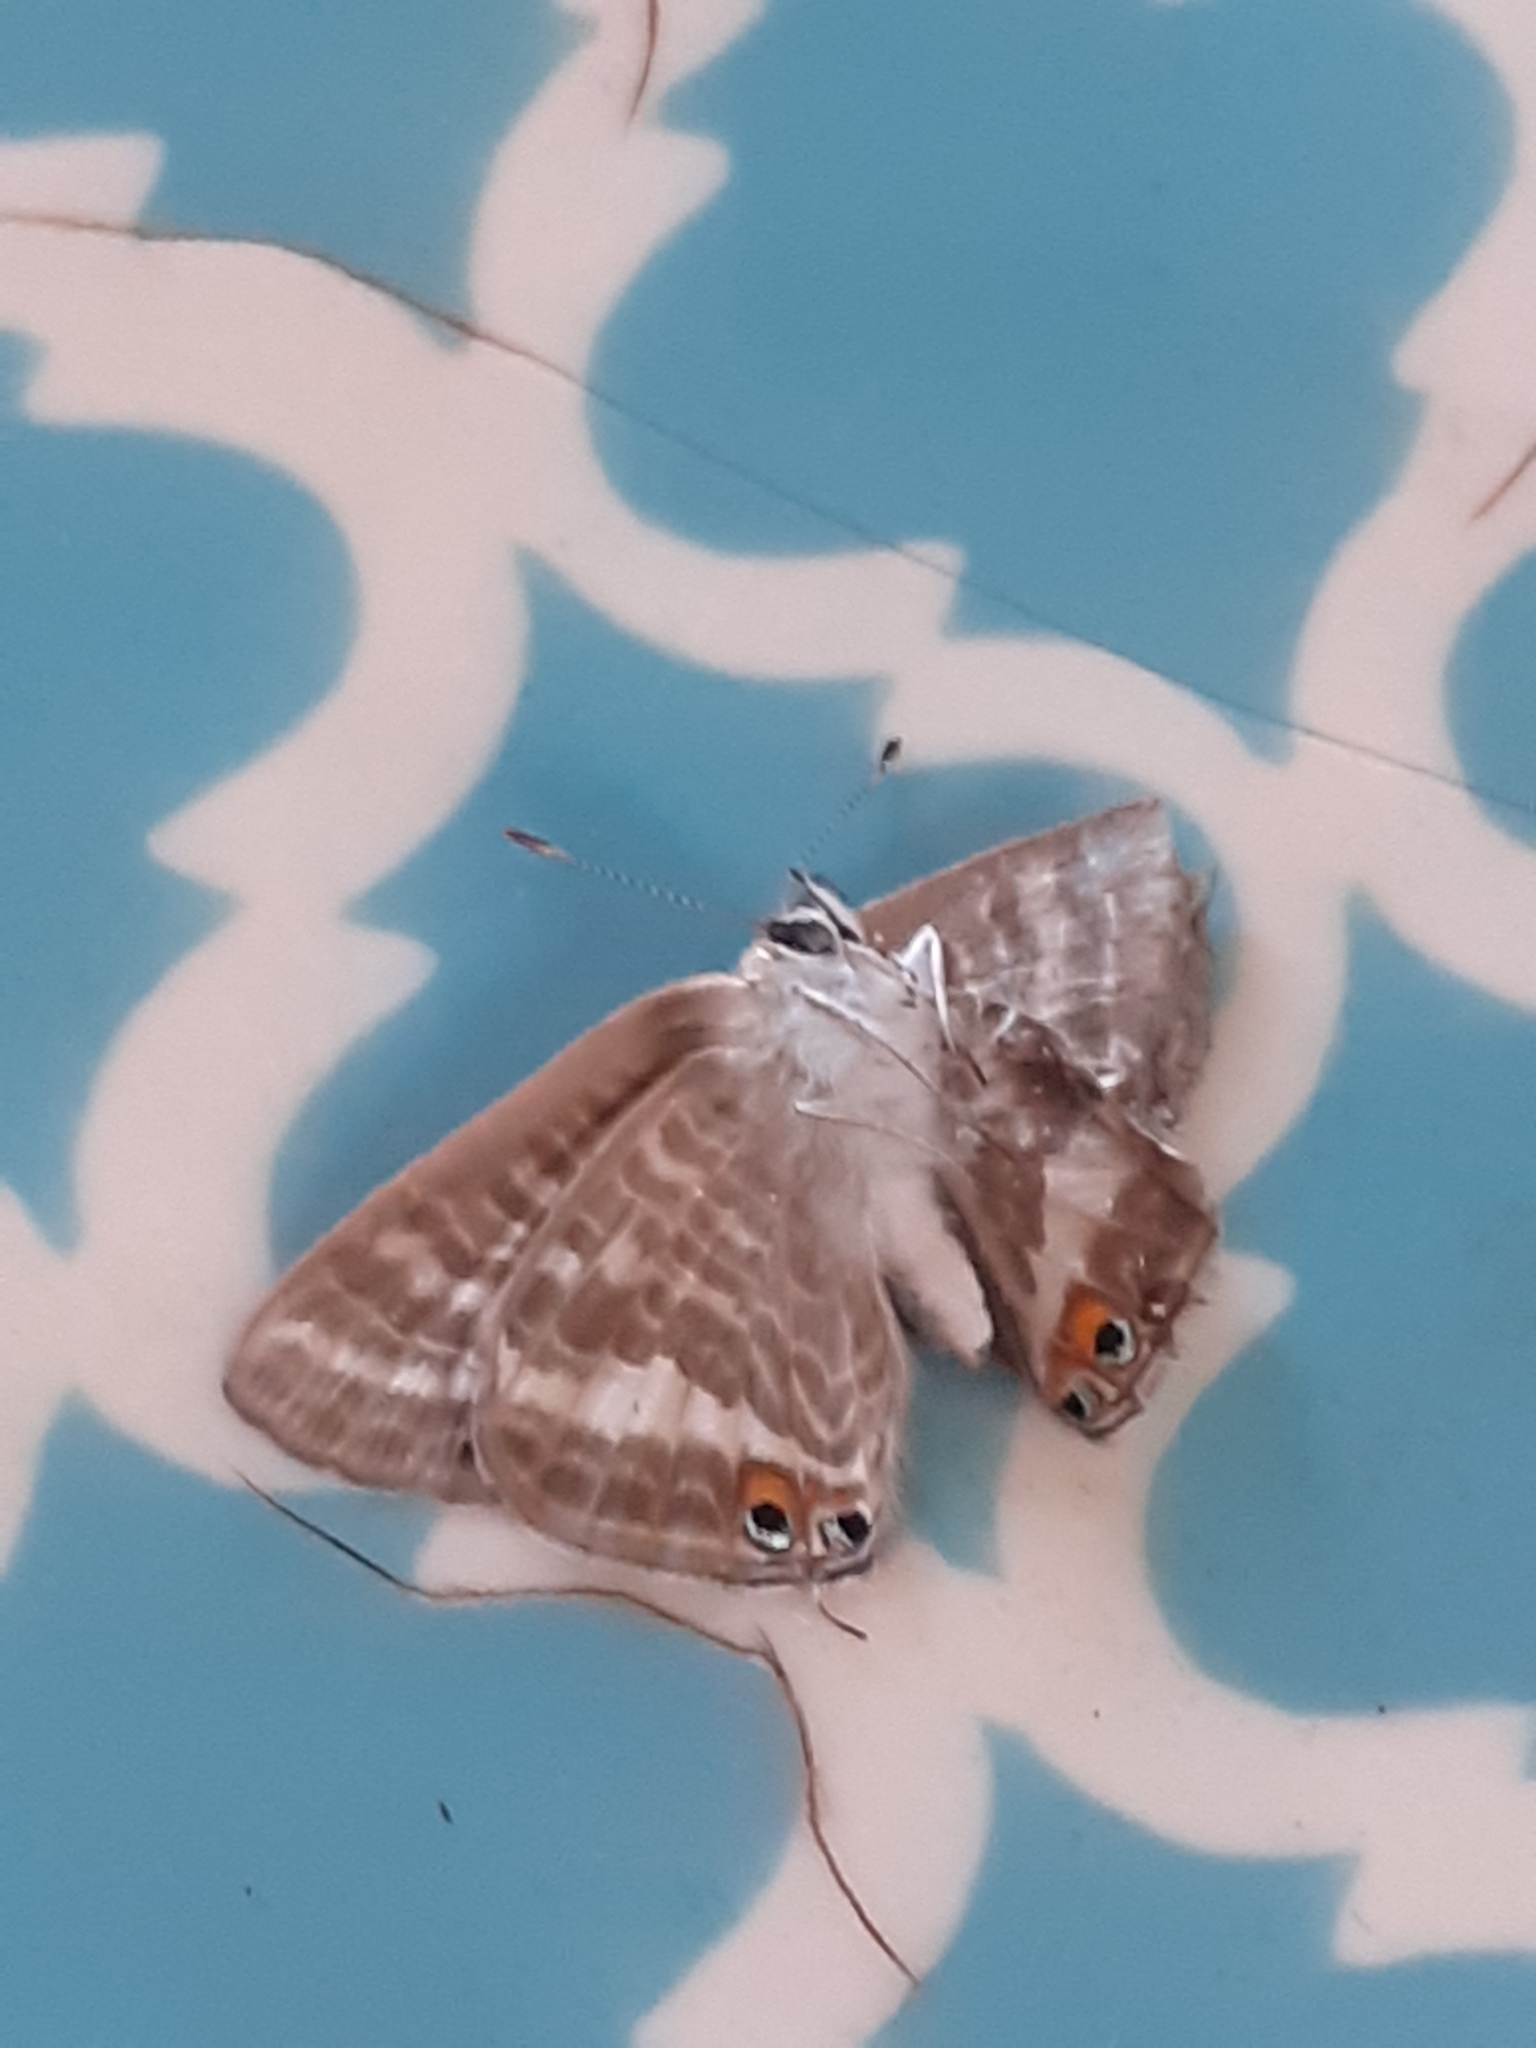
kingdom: Animalia
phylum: Arthropoda
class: Insecta
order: Lepidoptera
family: Lycaenidae
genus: Lampides
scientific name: Lampides boeticus
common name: Long-tailed blue
